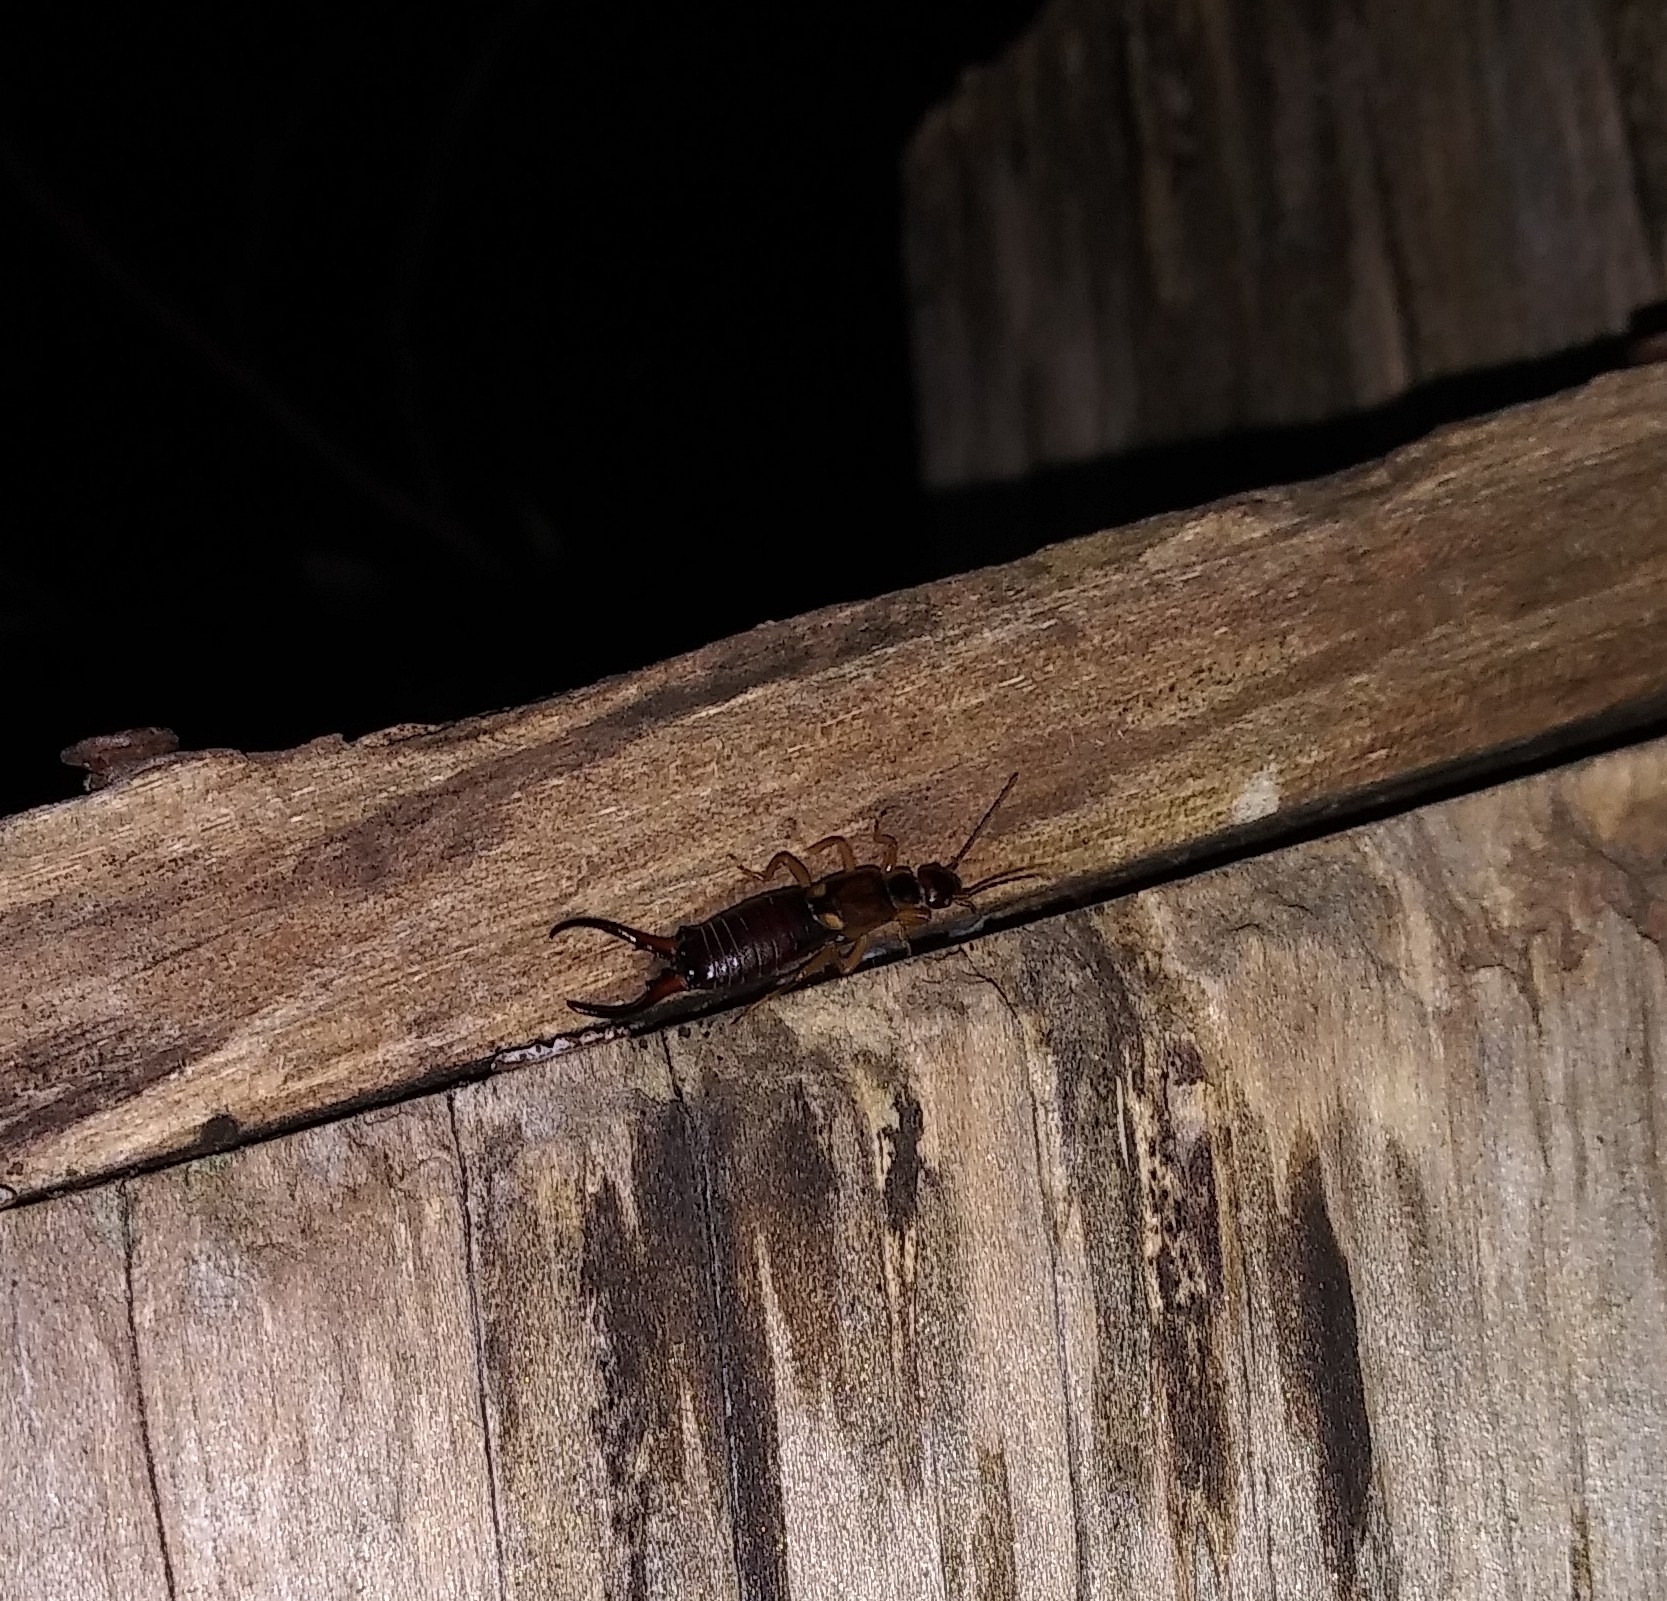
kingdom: Animalia
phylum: Arthropoda
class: Insecta
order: Dermaptera
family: Forficulidae
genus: Forficula
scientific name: Forficula
